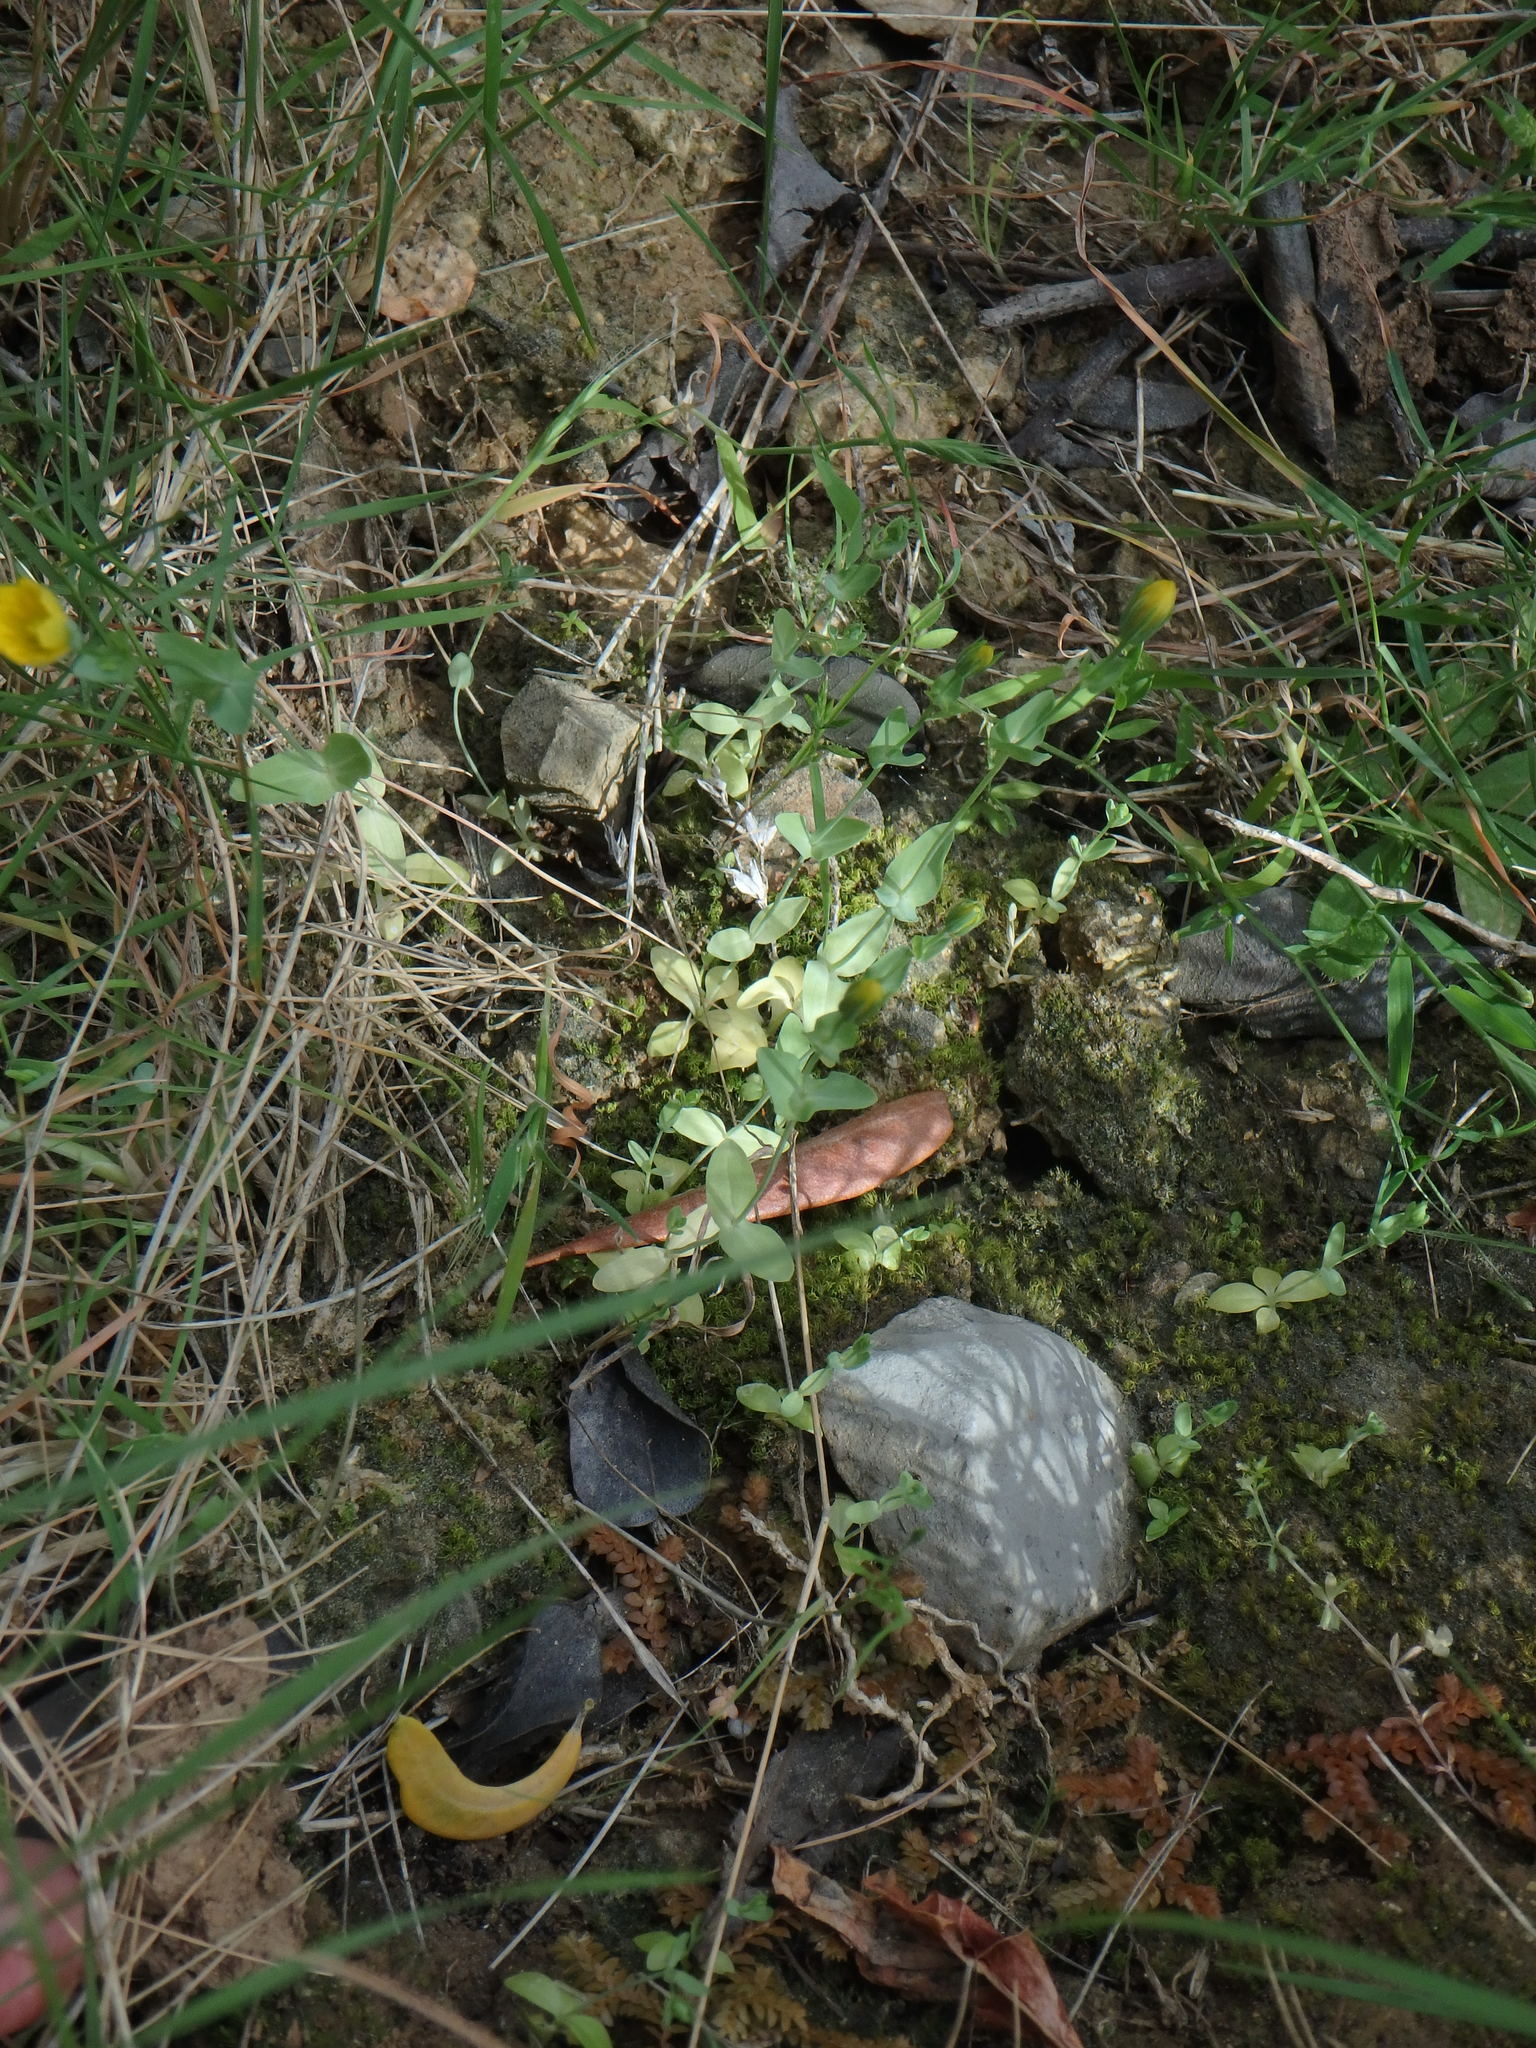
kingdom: Plantae
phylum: Tracheophyta
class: Magnoliopsida
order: Gentianales
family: Gentianaceae
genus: Blackstonia
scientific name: Blackstonia perfoliata
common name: Yellow-wort
